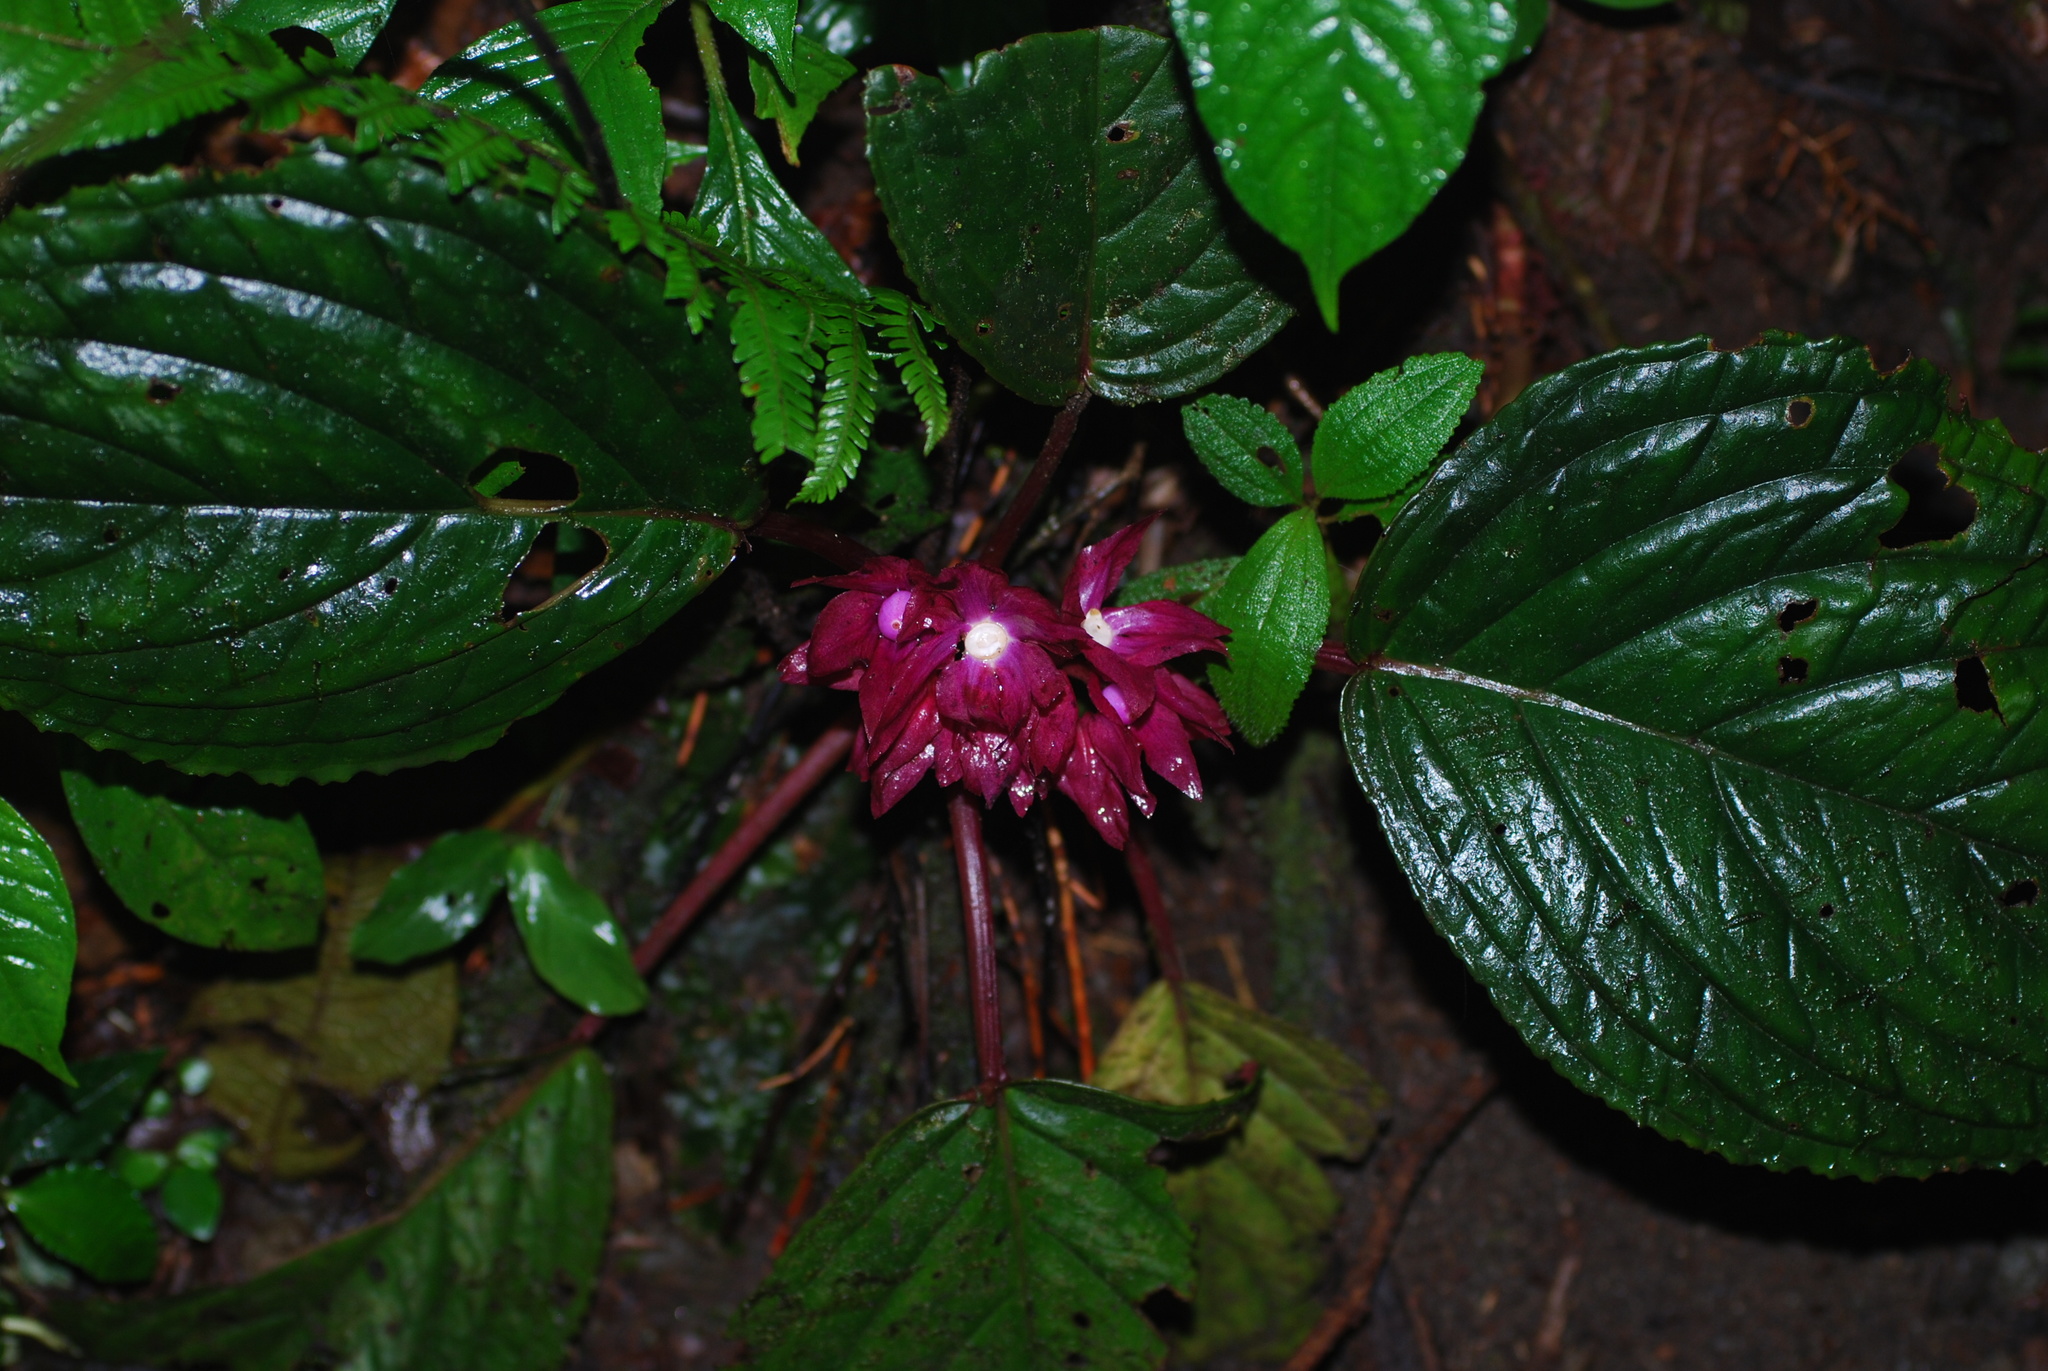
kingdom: Plantae
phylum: Tracheophyta
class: Magnoliopsida
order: Lamiales
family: Gesneriaceae
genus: Drymonia
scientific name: Drymonia turrialvae
